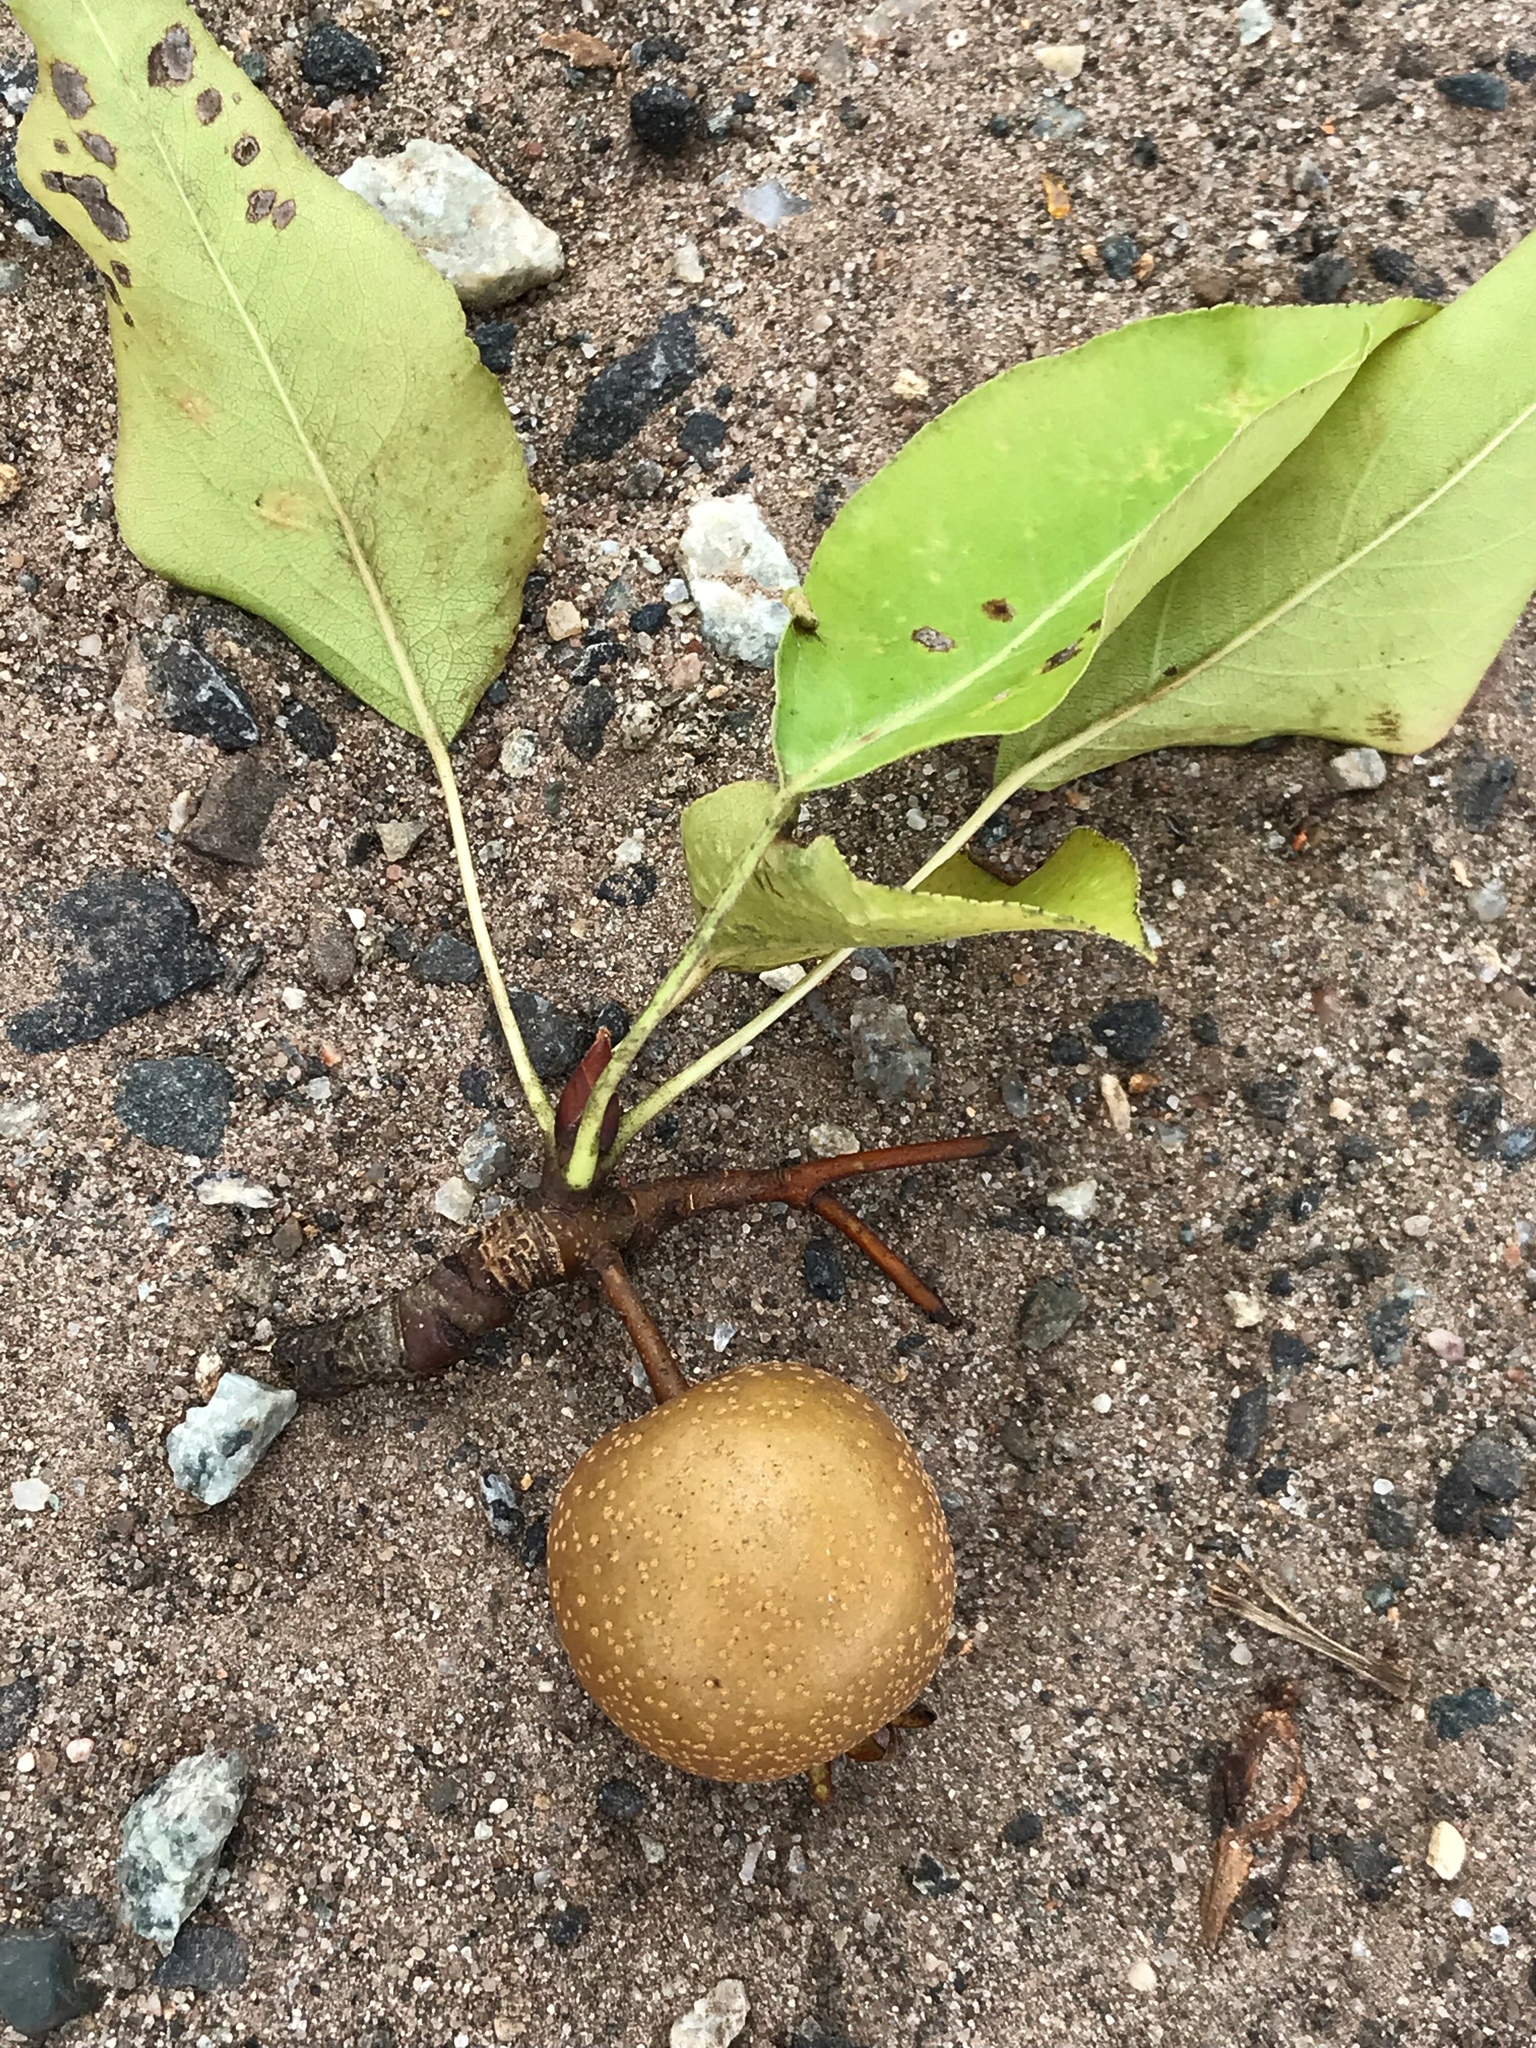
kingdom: Plantae
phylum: Tracheophyta
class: Magnoliopsida
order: Rosales
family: Rosaceae
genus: Pyrus
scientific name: Pyrus calleryana
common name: Callery pear
